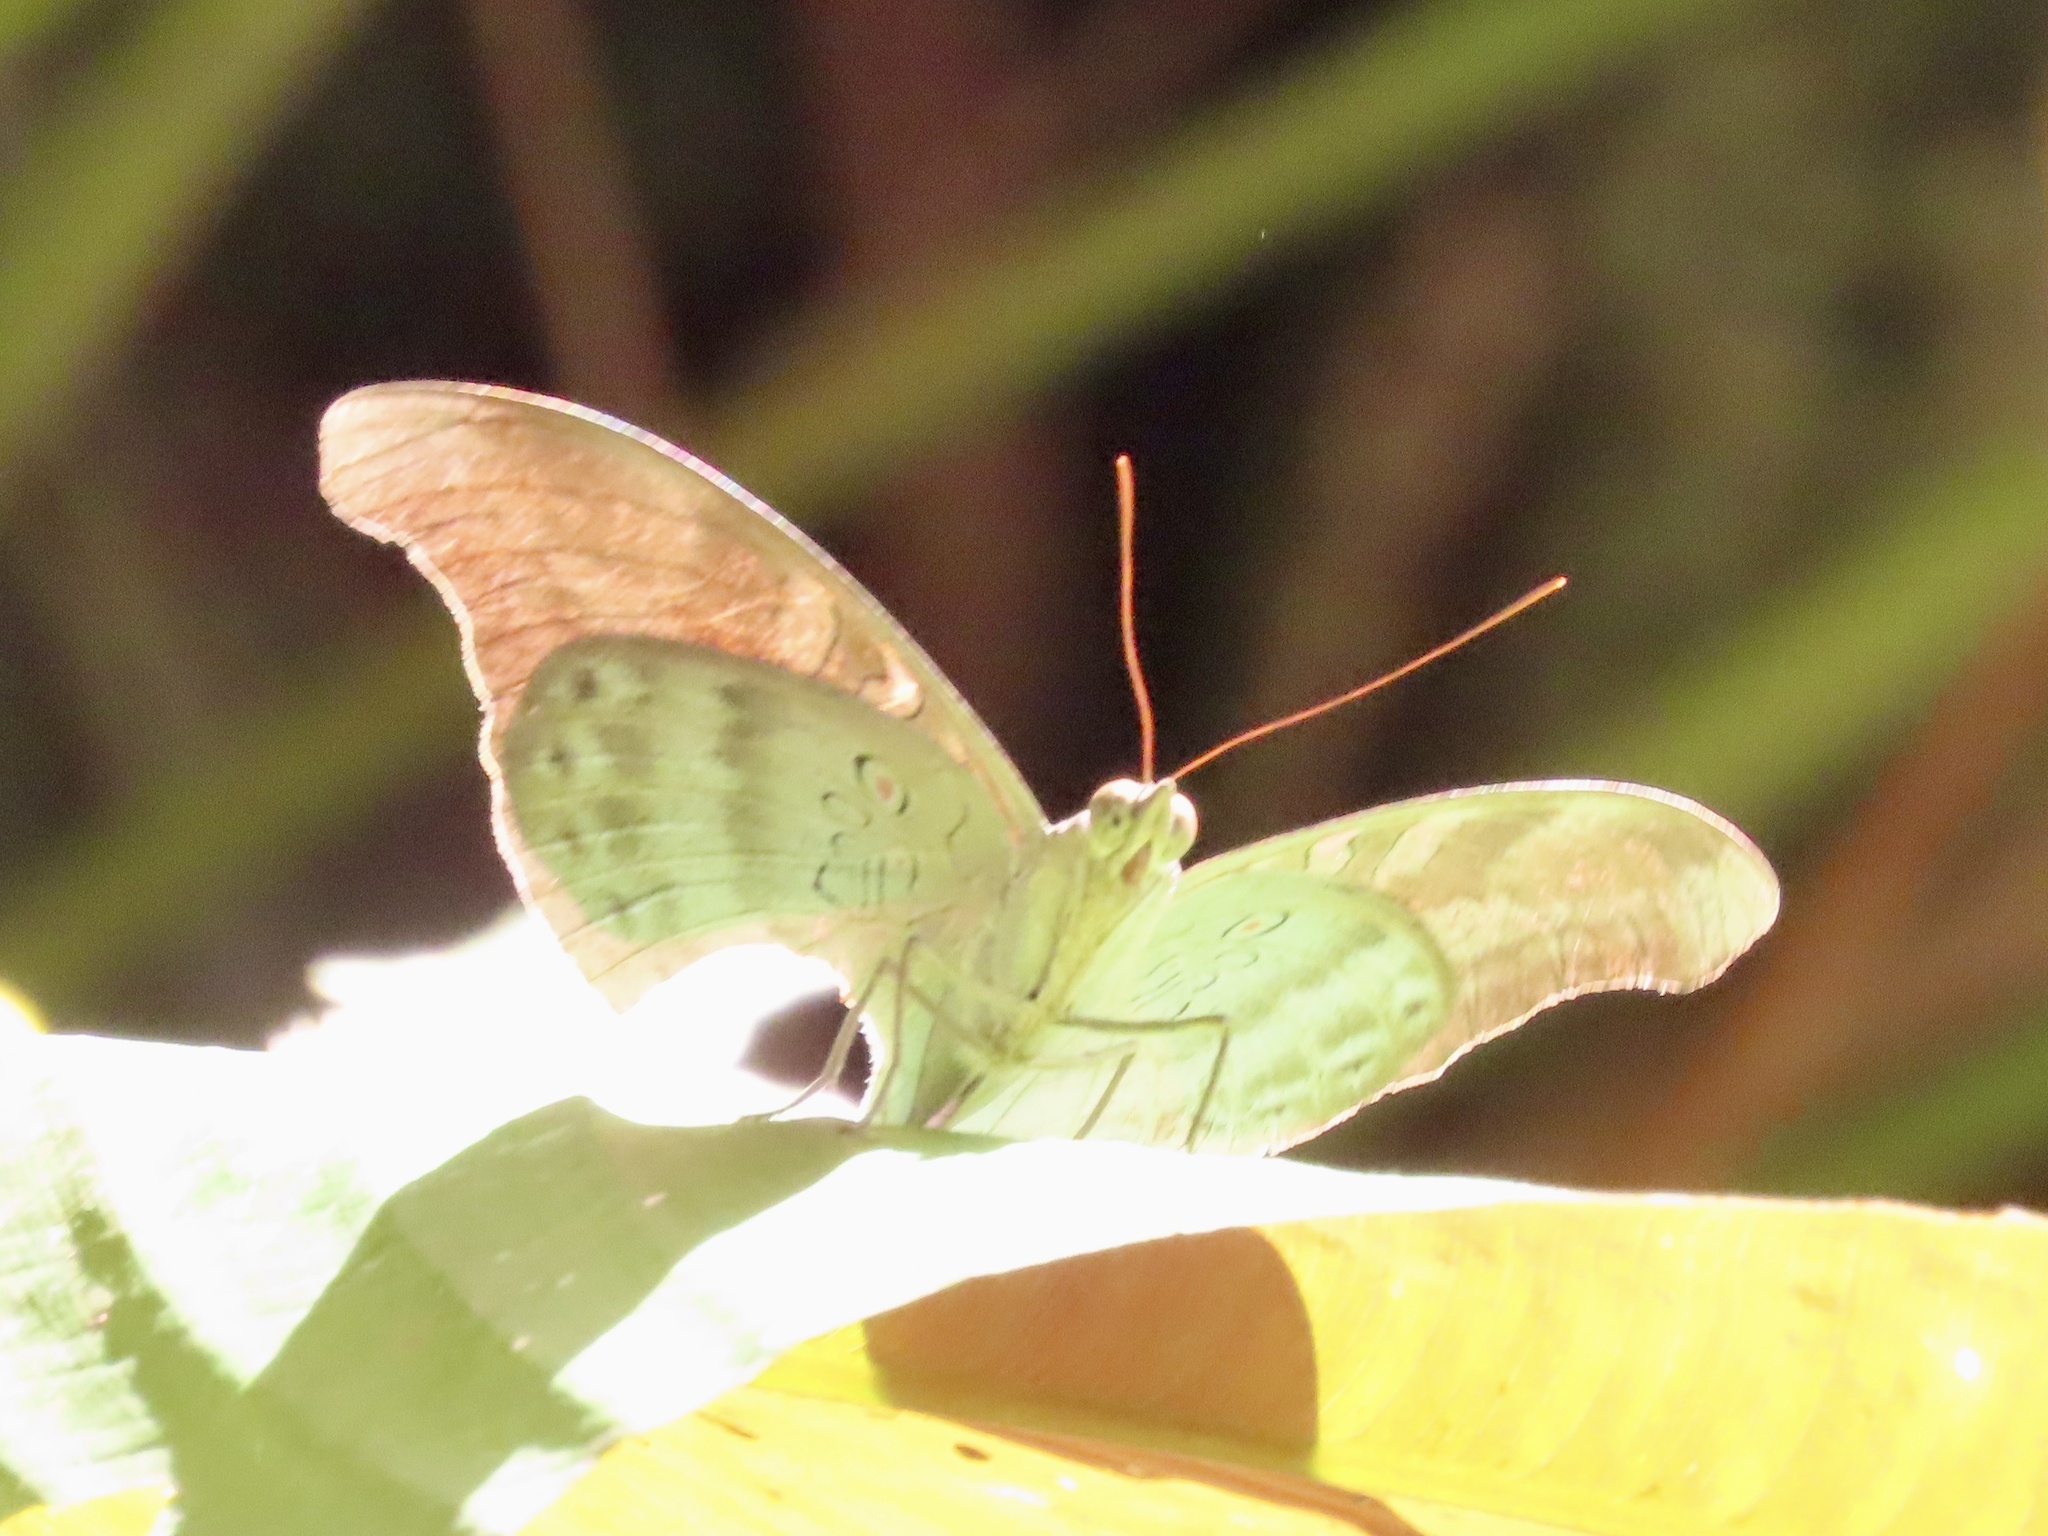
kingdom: Animalia
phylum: Arthropoda
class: Insecta
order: Lepidoptera
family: Nymphalidae
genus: Euthalia
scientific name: Euthalia Dophla evelina
